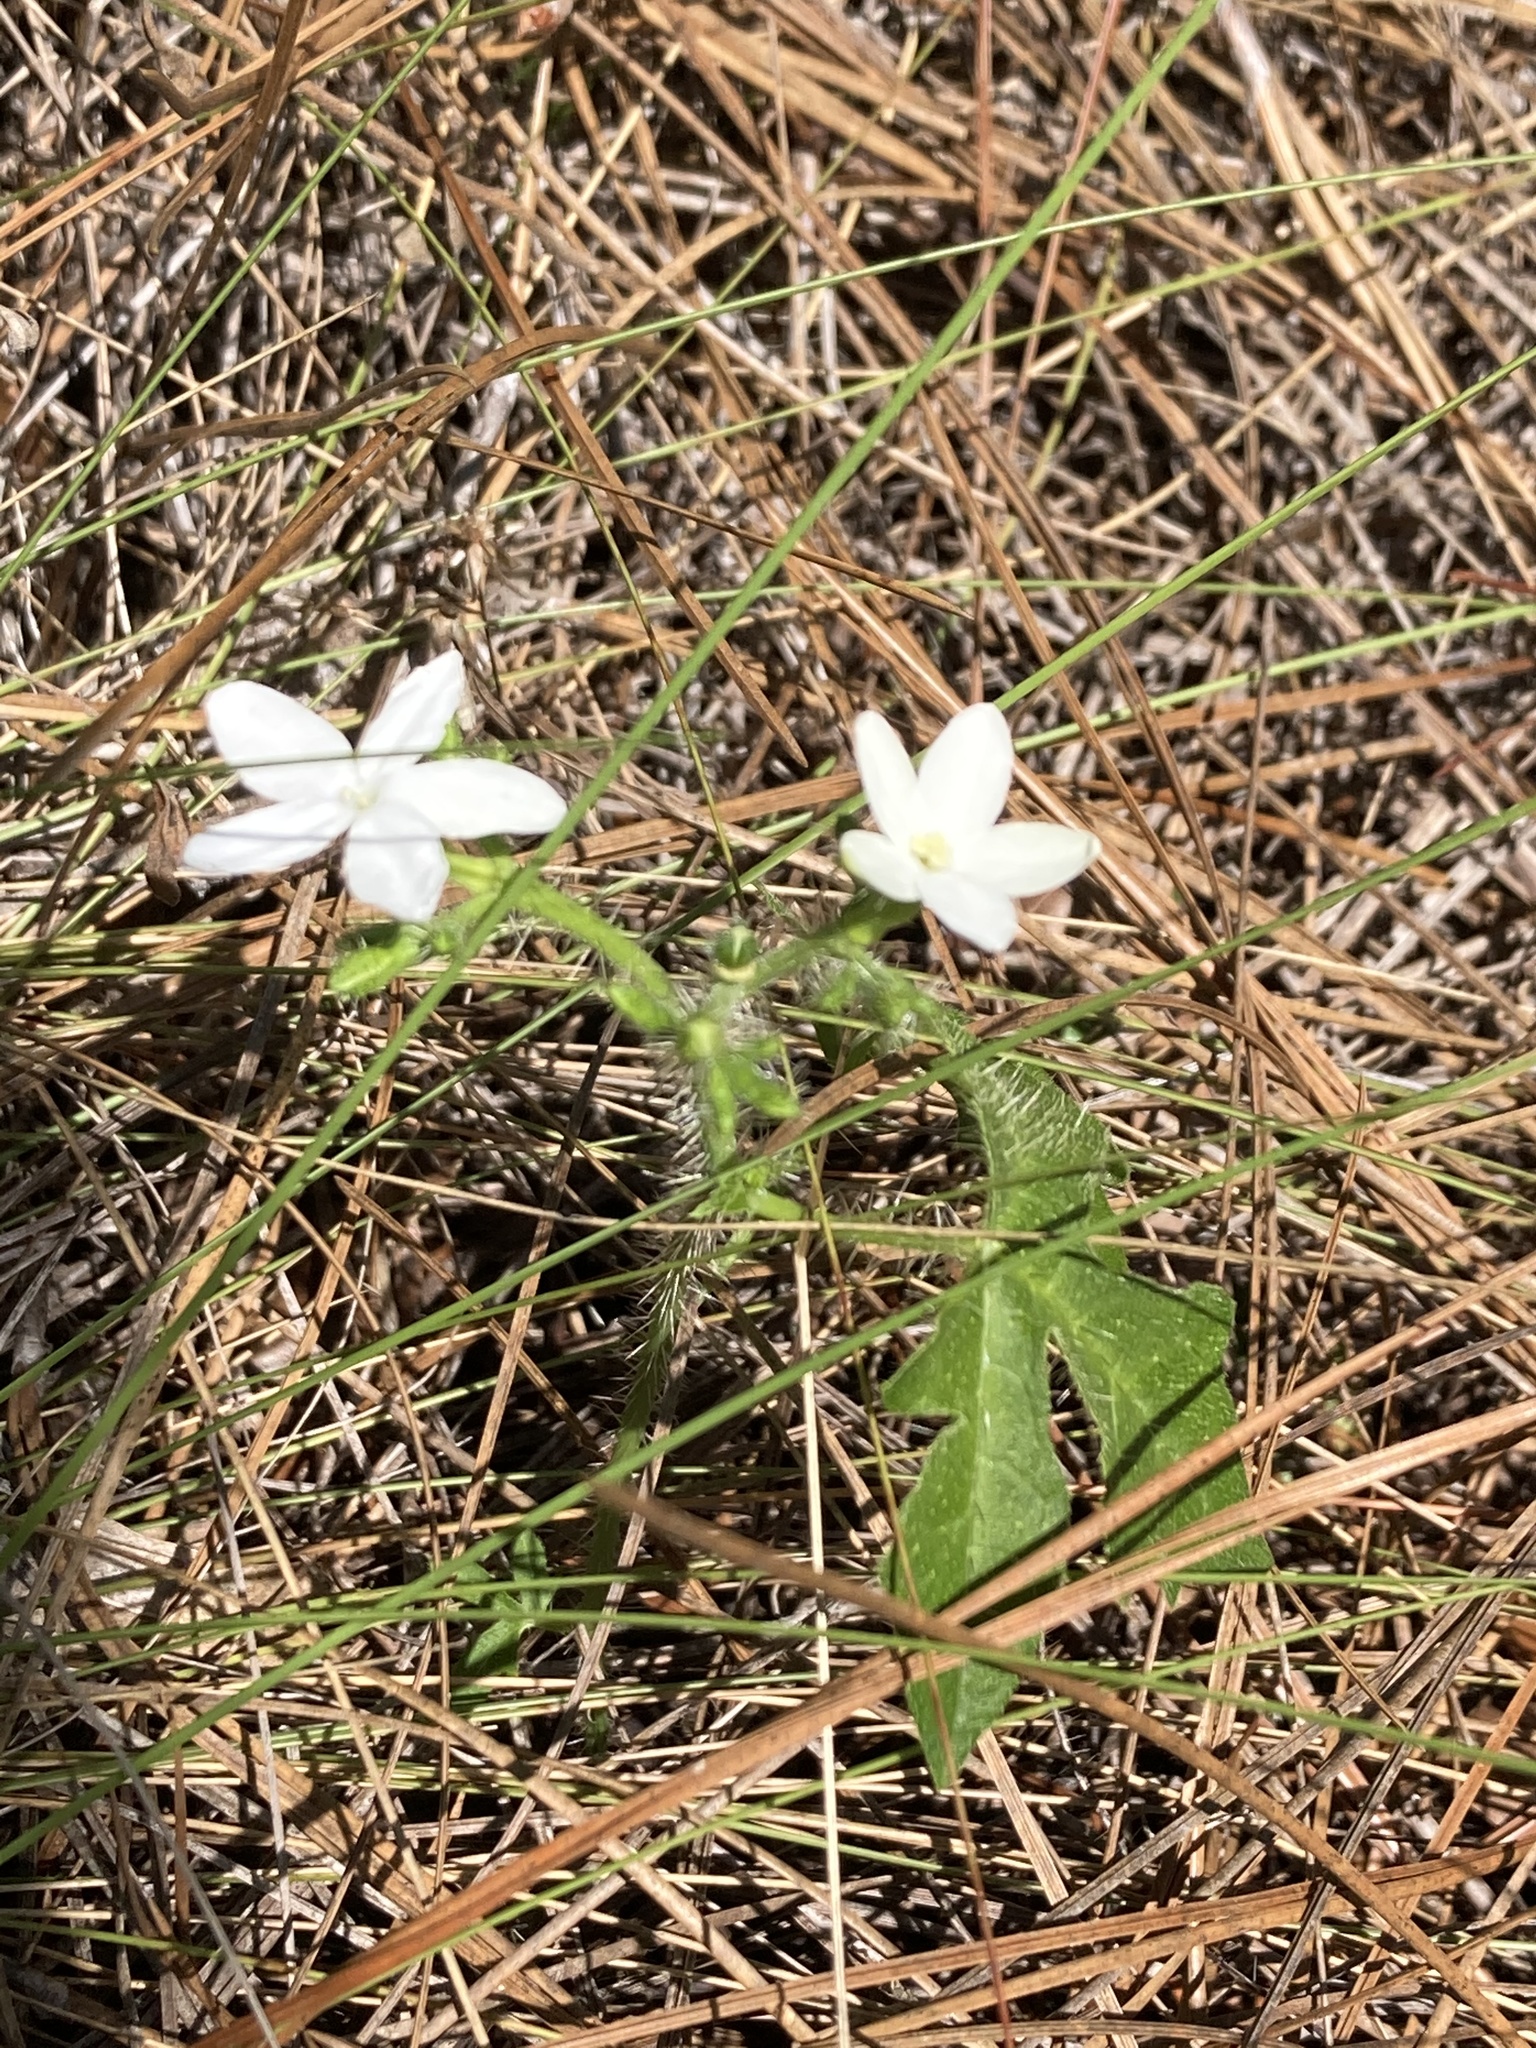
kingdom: Plantae
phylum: Tracheophyta
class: Magnoliopsida
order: Malpighiales
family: Euphorbiaceae
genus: Cnidoscolus
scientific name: Cnidoscolus stimulosus
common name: Bull-nettle
